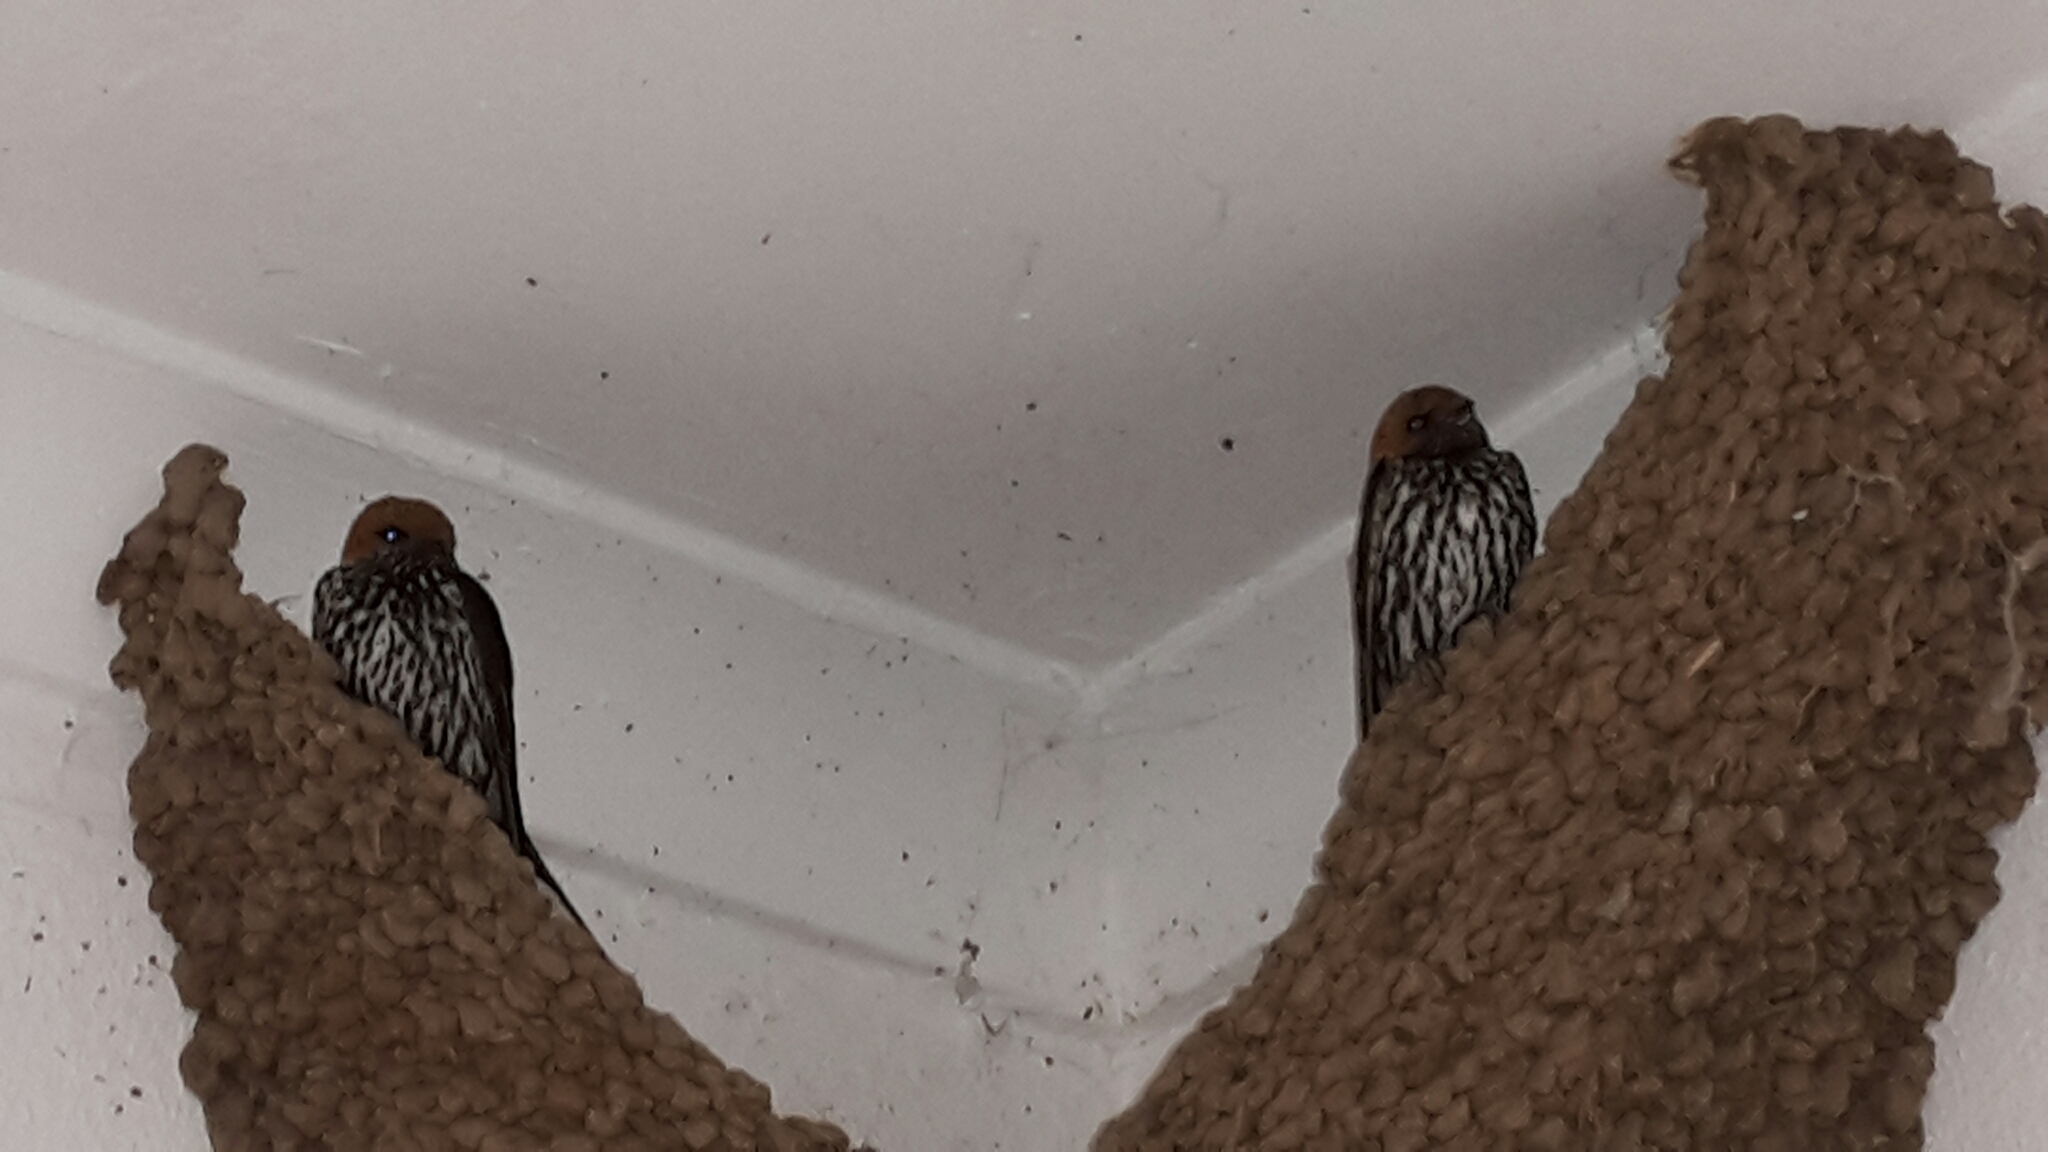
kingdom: Animalia
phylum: Chordata
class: Aves
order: Passeriformes
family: Hirundinidae
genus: Cecropis
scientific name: Cecropis abyssinica
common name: Lesser striped-swallow
